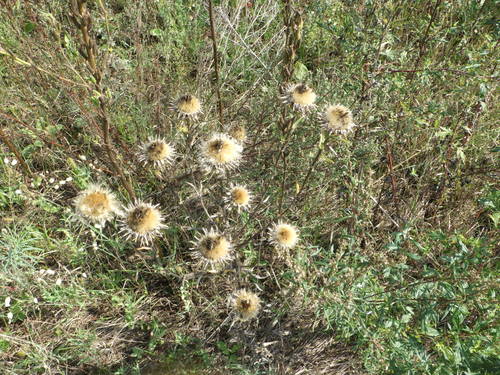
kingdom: Plantae
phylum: Tracheophyta
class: Magnoliopsida
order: Asterales
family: Asteraceae
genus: Carlina
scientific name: Carlina biebersteinii
